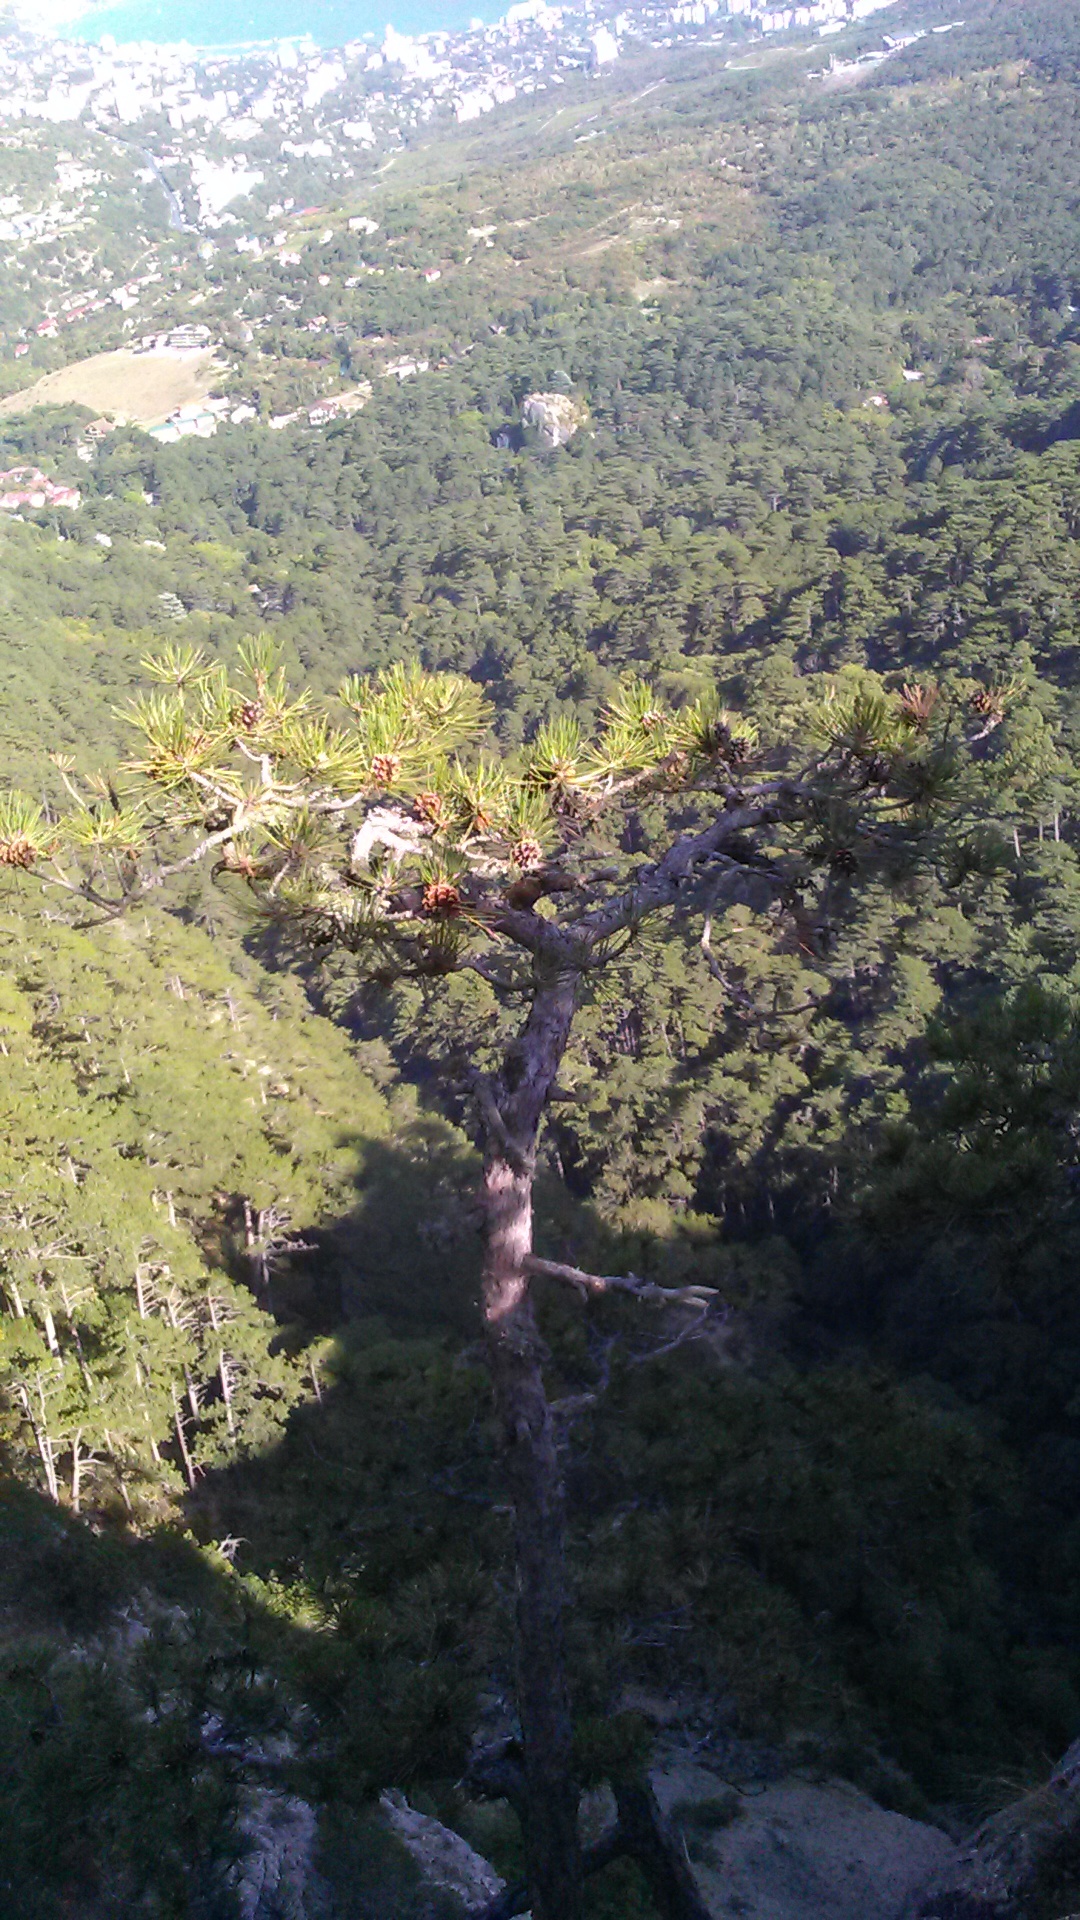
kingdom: Plantae
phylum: Tracheophyta
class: Pinopsida
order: Pinales
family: Pinaceae
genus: Pinus
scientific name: Pinus nigra
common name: Austrian pine
